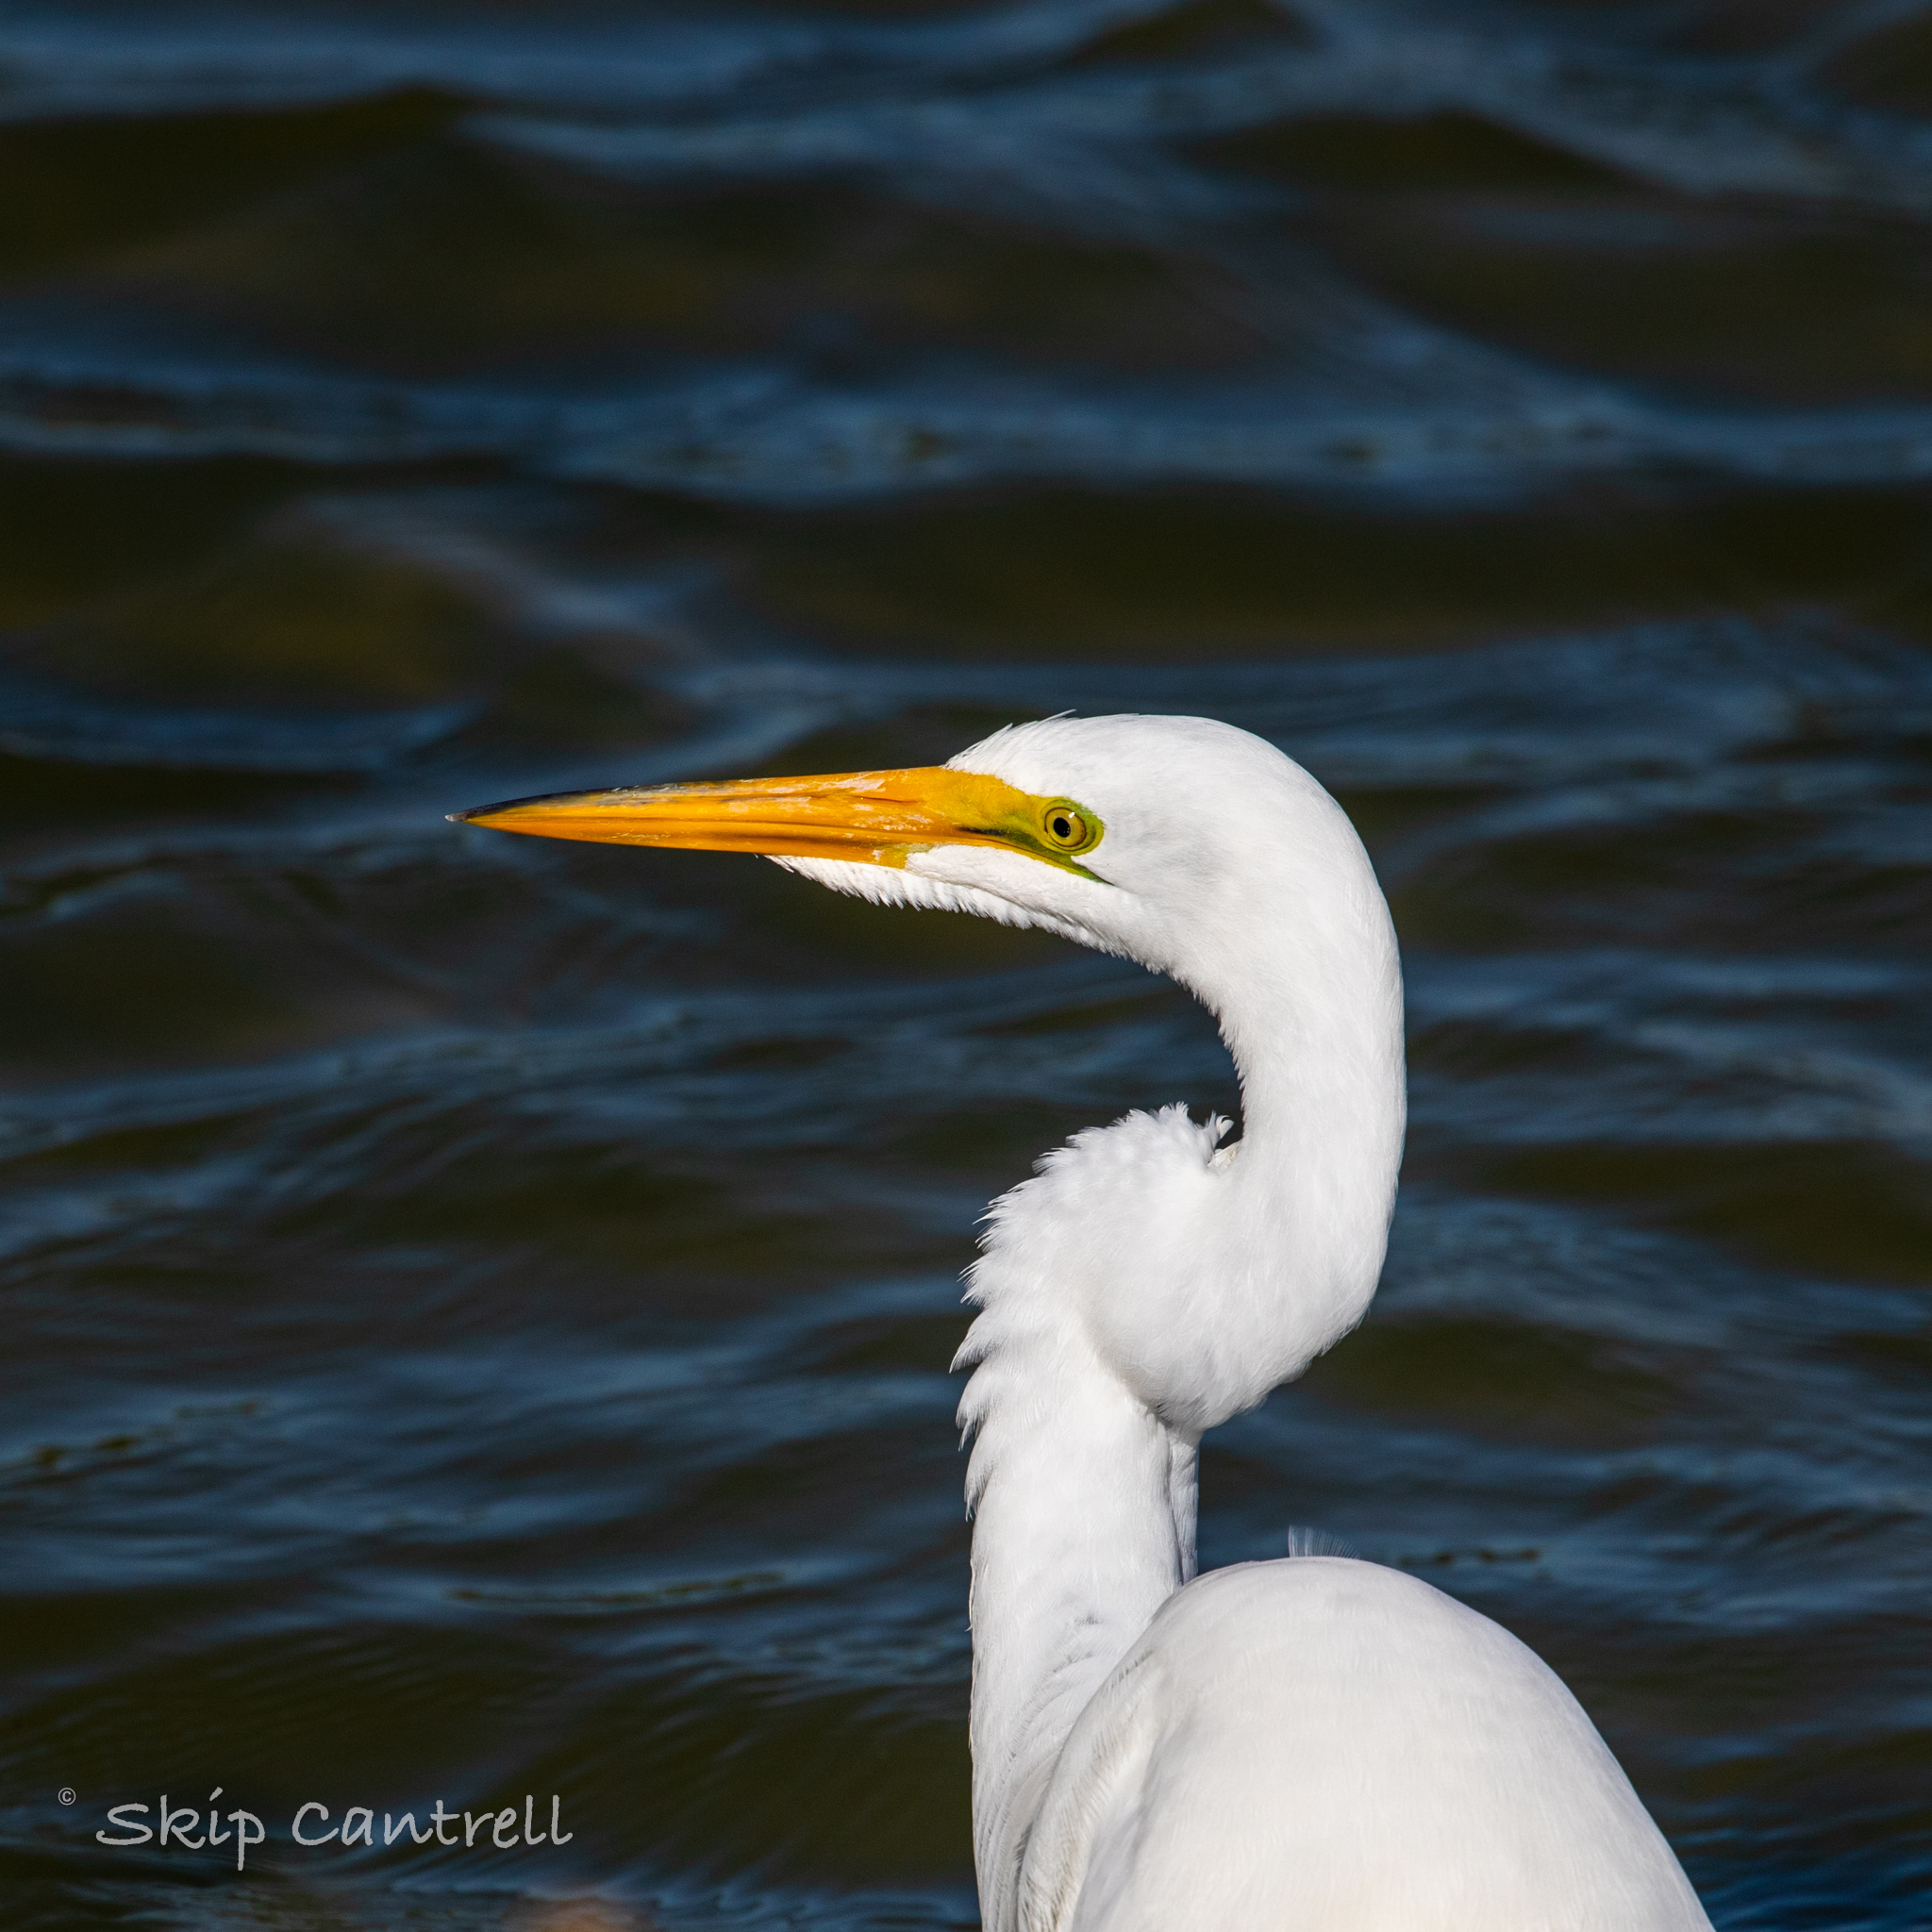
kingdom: Animalia
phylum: Chordata
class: Aves
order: Pelecaniformes
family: Ardeidae
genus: Ardea
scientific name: Ardea alba
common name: Great egret
